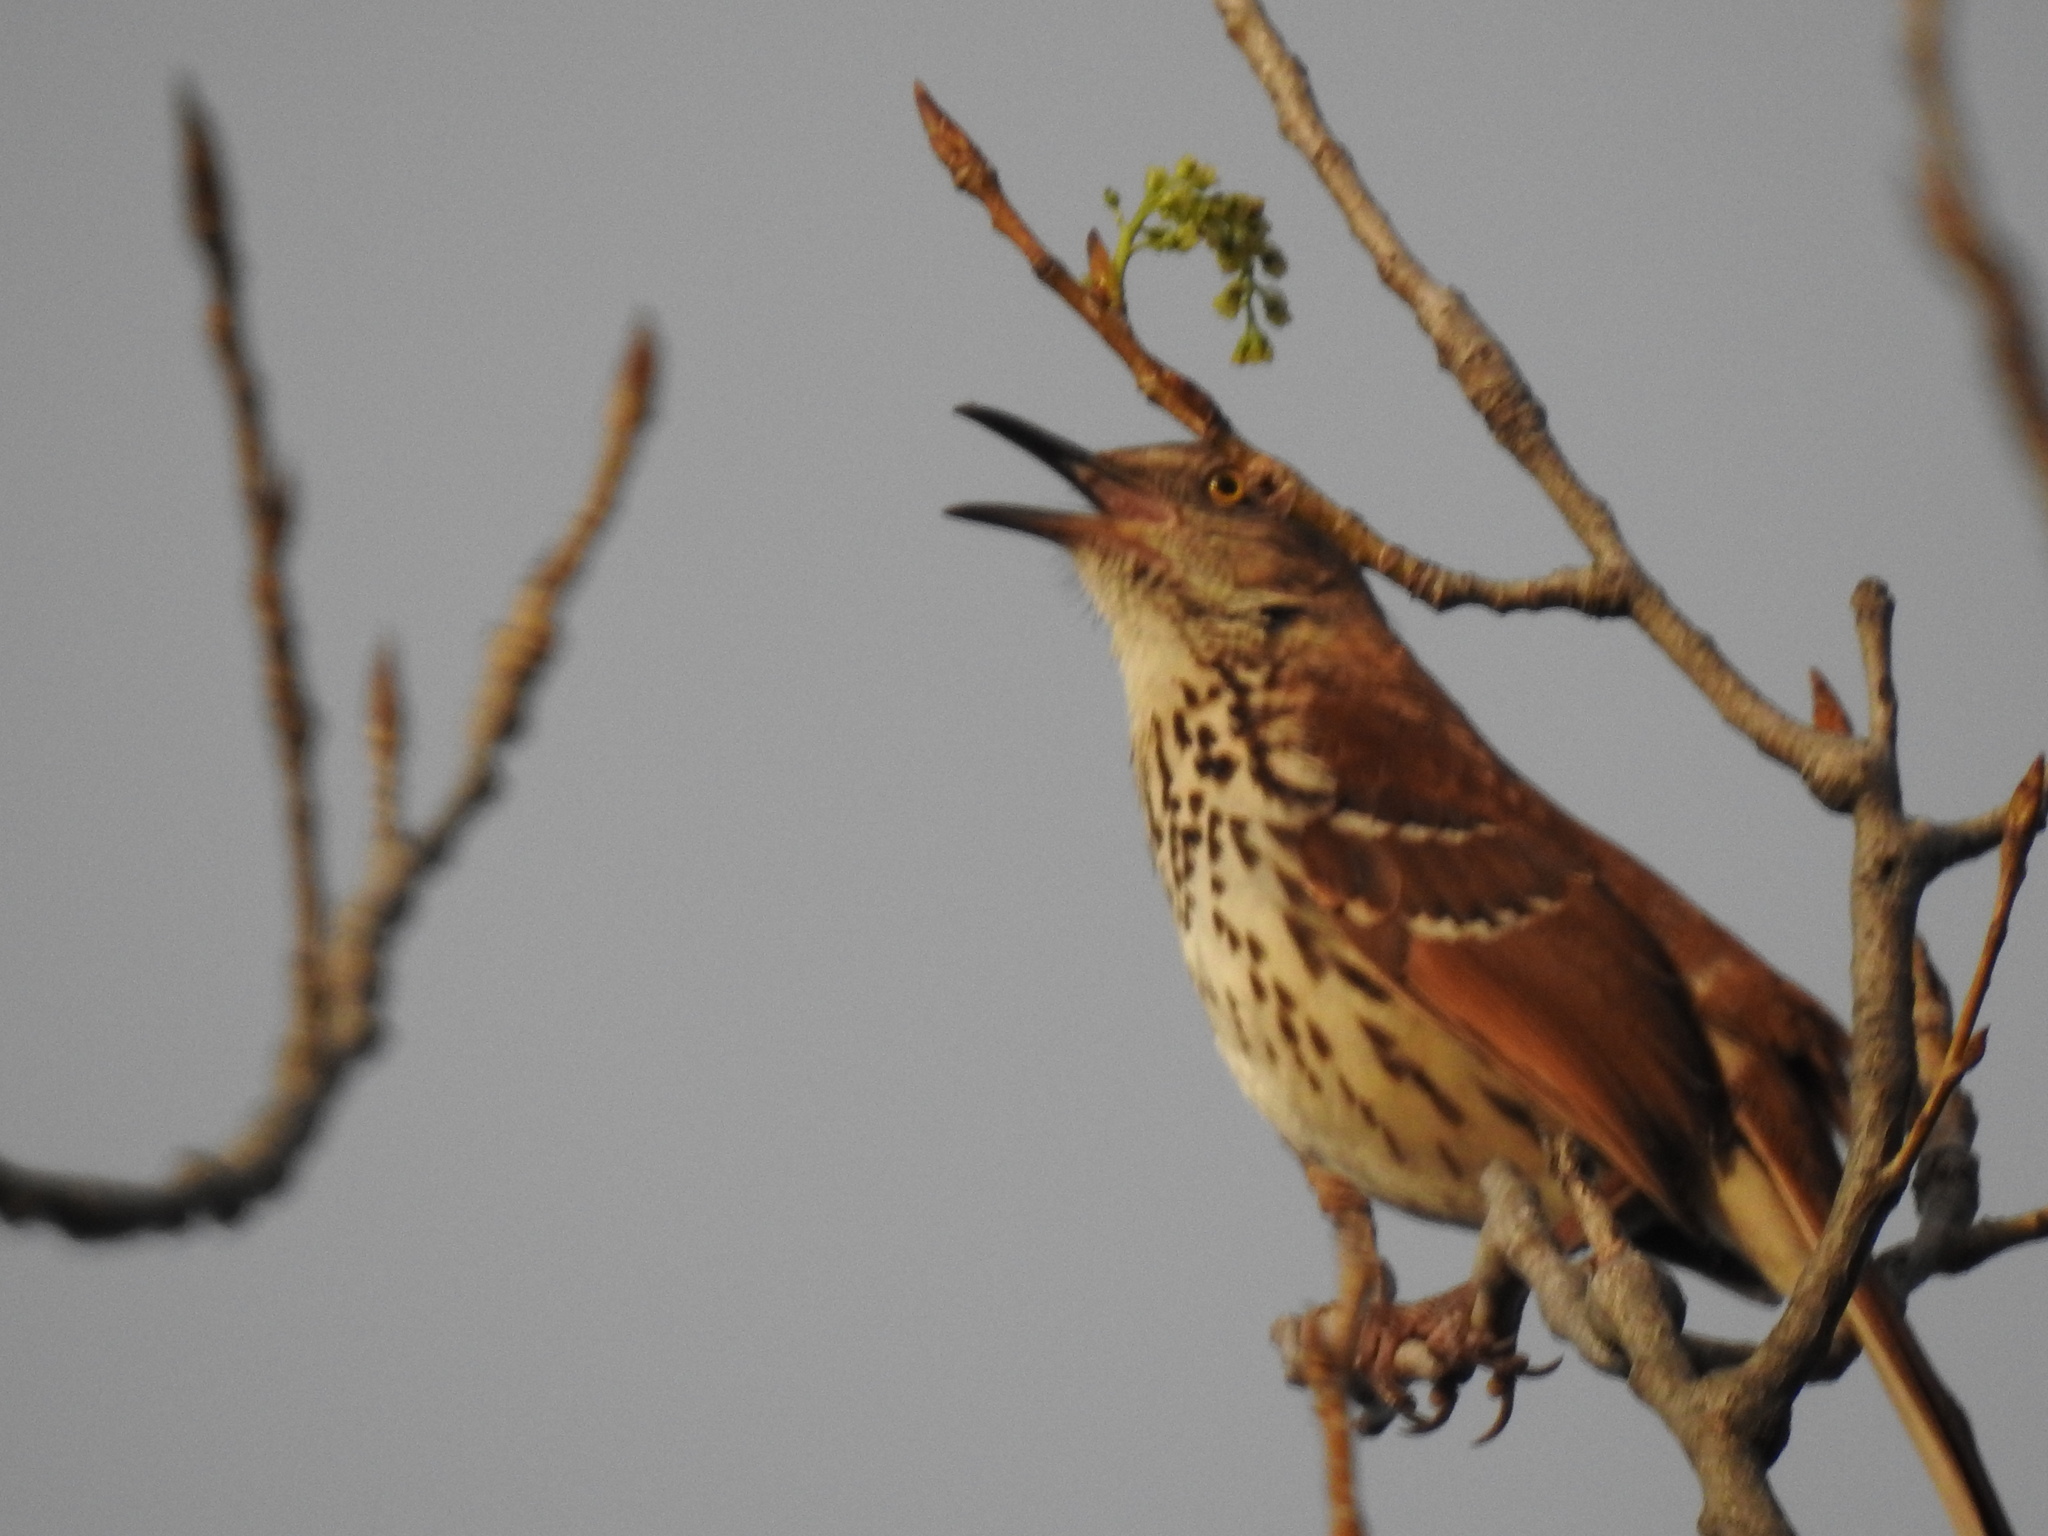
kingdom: Animalia
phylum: Chordata
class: Aves
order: Passeriformes
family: Mimidae
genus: Toxostoma
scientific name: Toxostoma rufum
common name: Brown thrasher
